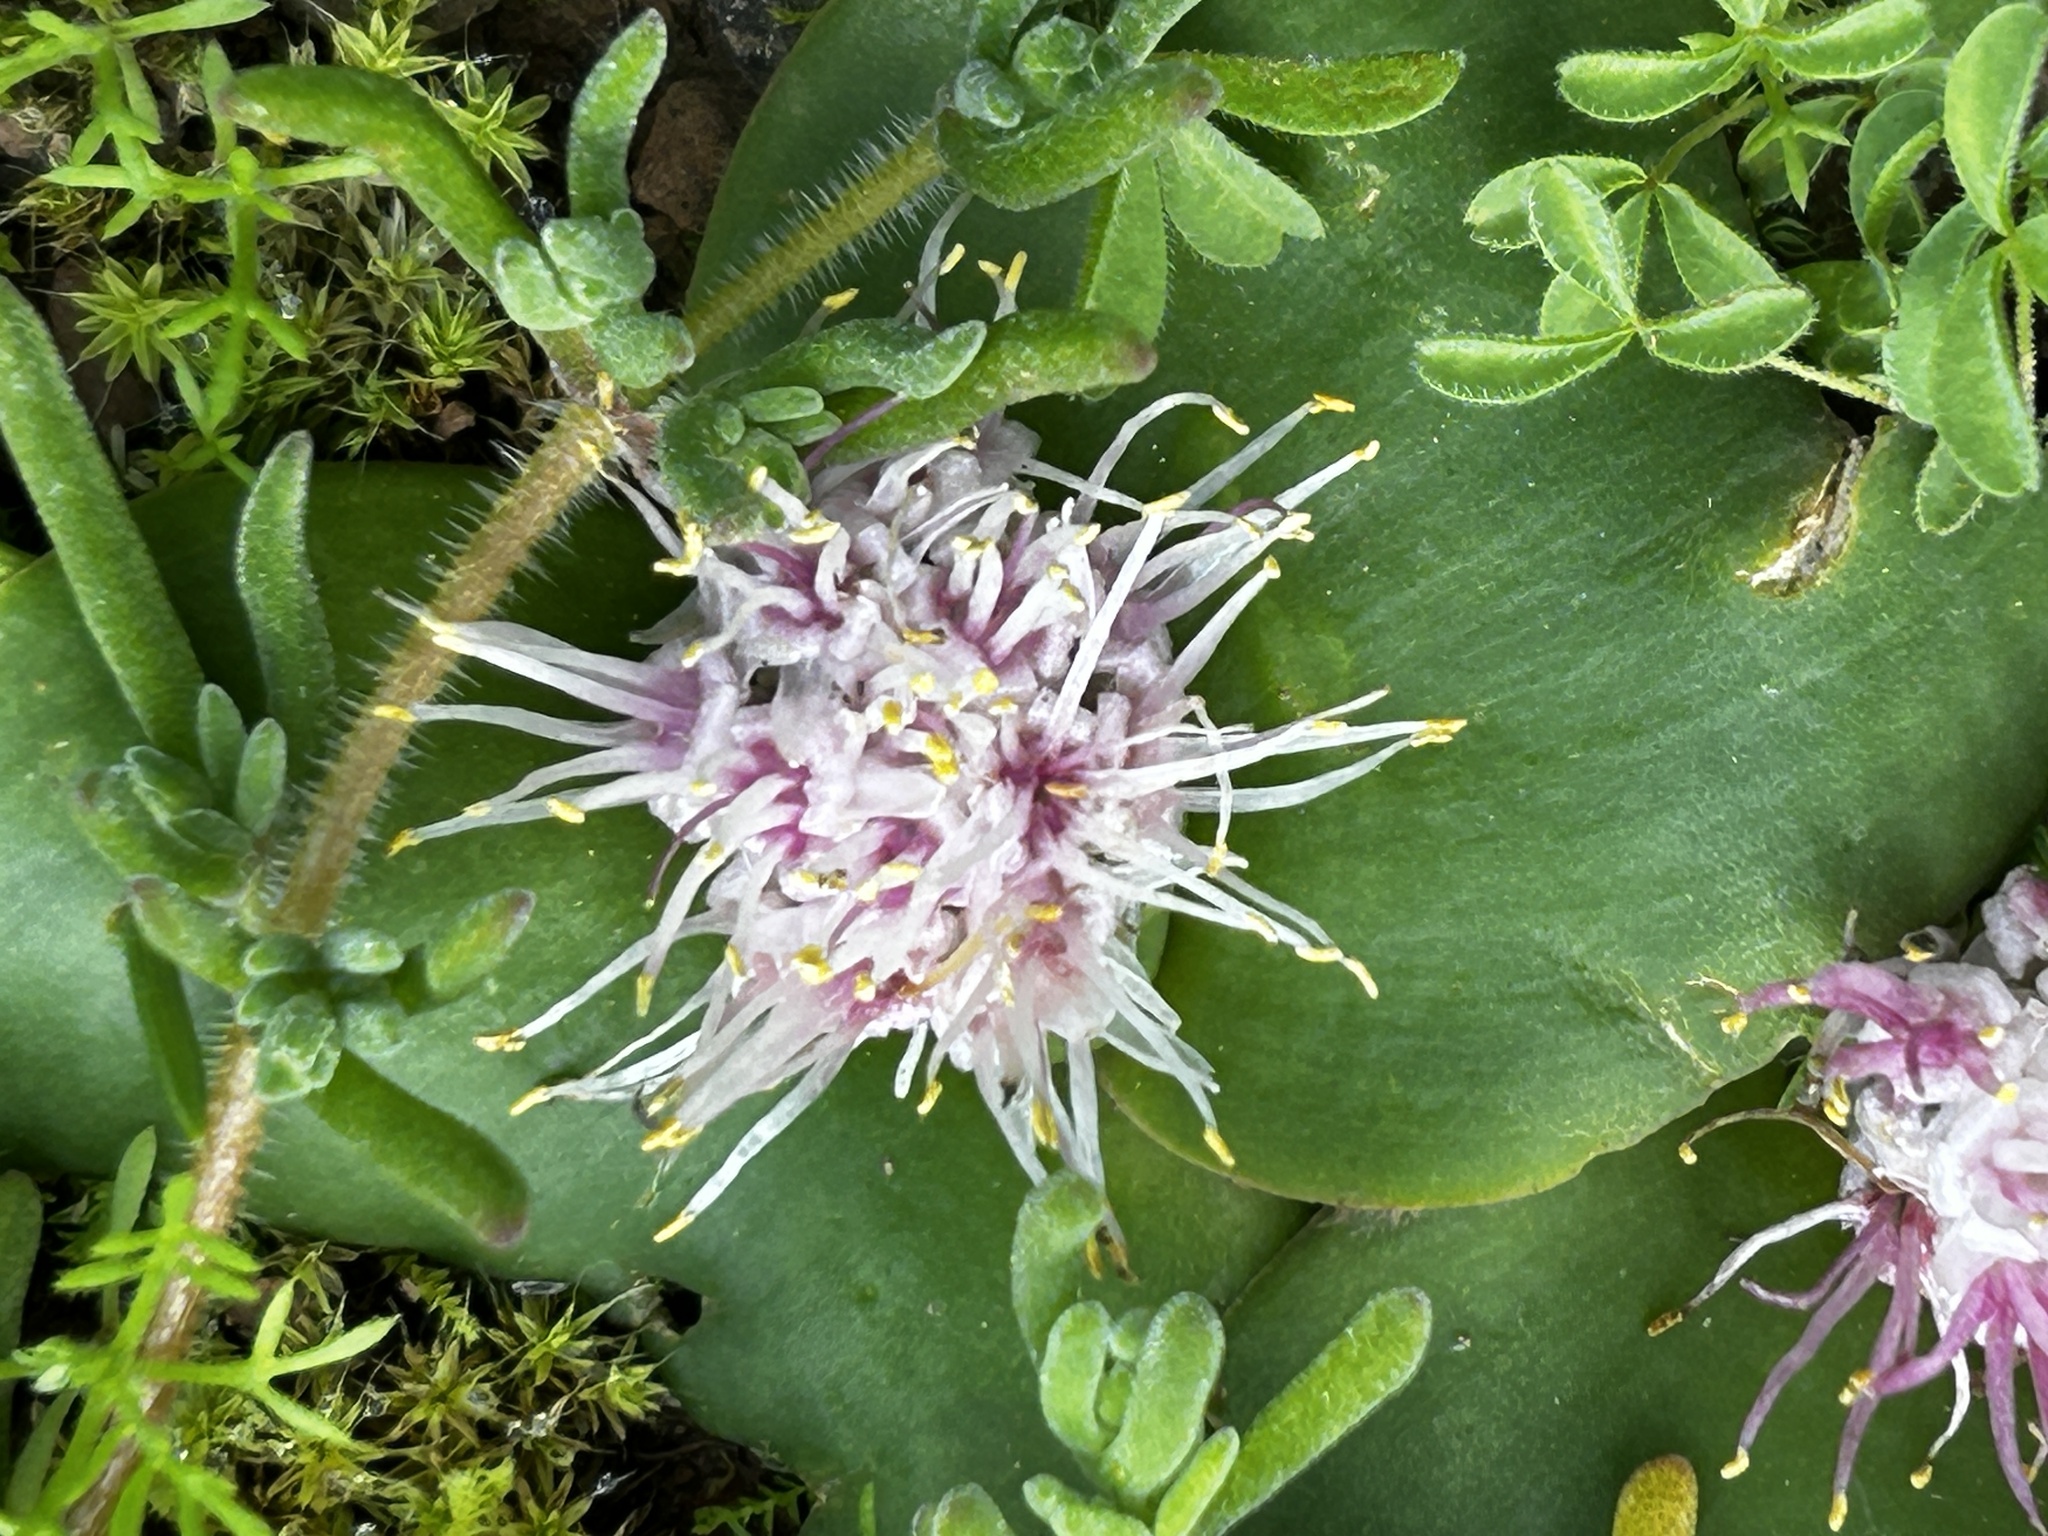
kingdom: Plantae
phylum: Tracheophyta
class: Liliopsida
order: Asparagales
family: Asparagaceae
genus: Massonia
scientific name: Massonia setulosa
